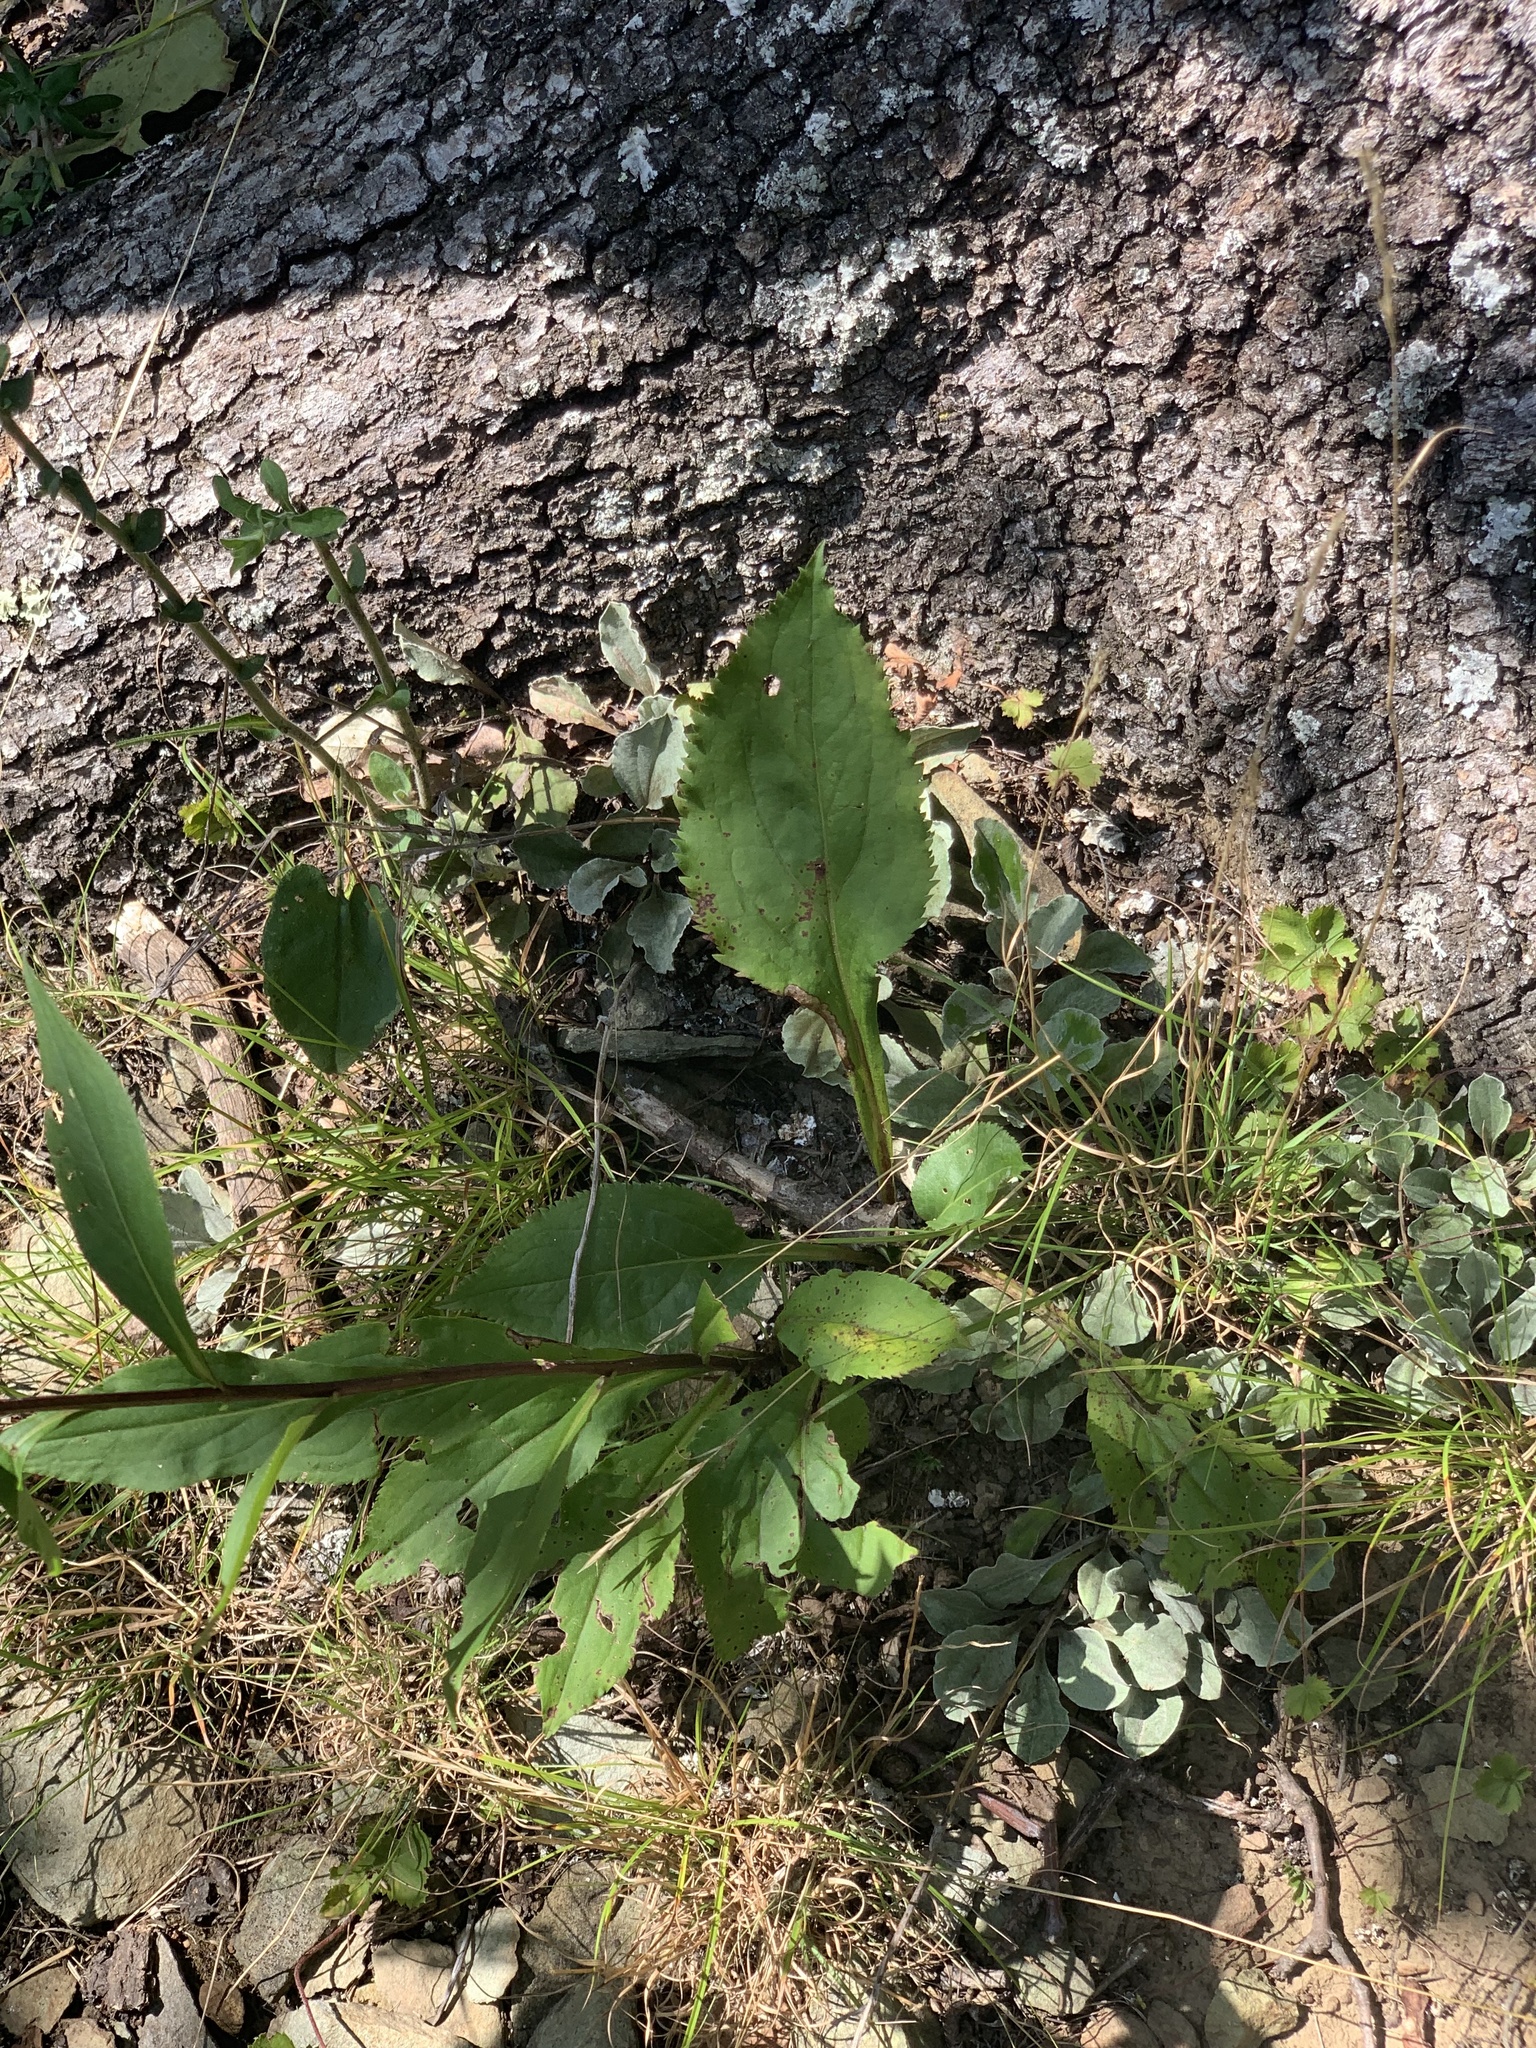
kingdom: Plantae
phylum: Tracheophyta
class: Magnoliopsida
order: Asterales
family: Asteraceae
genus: Solidago
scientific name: Solidago arguta
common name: Atlantic goldenrod
